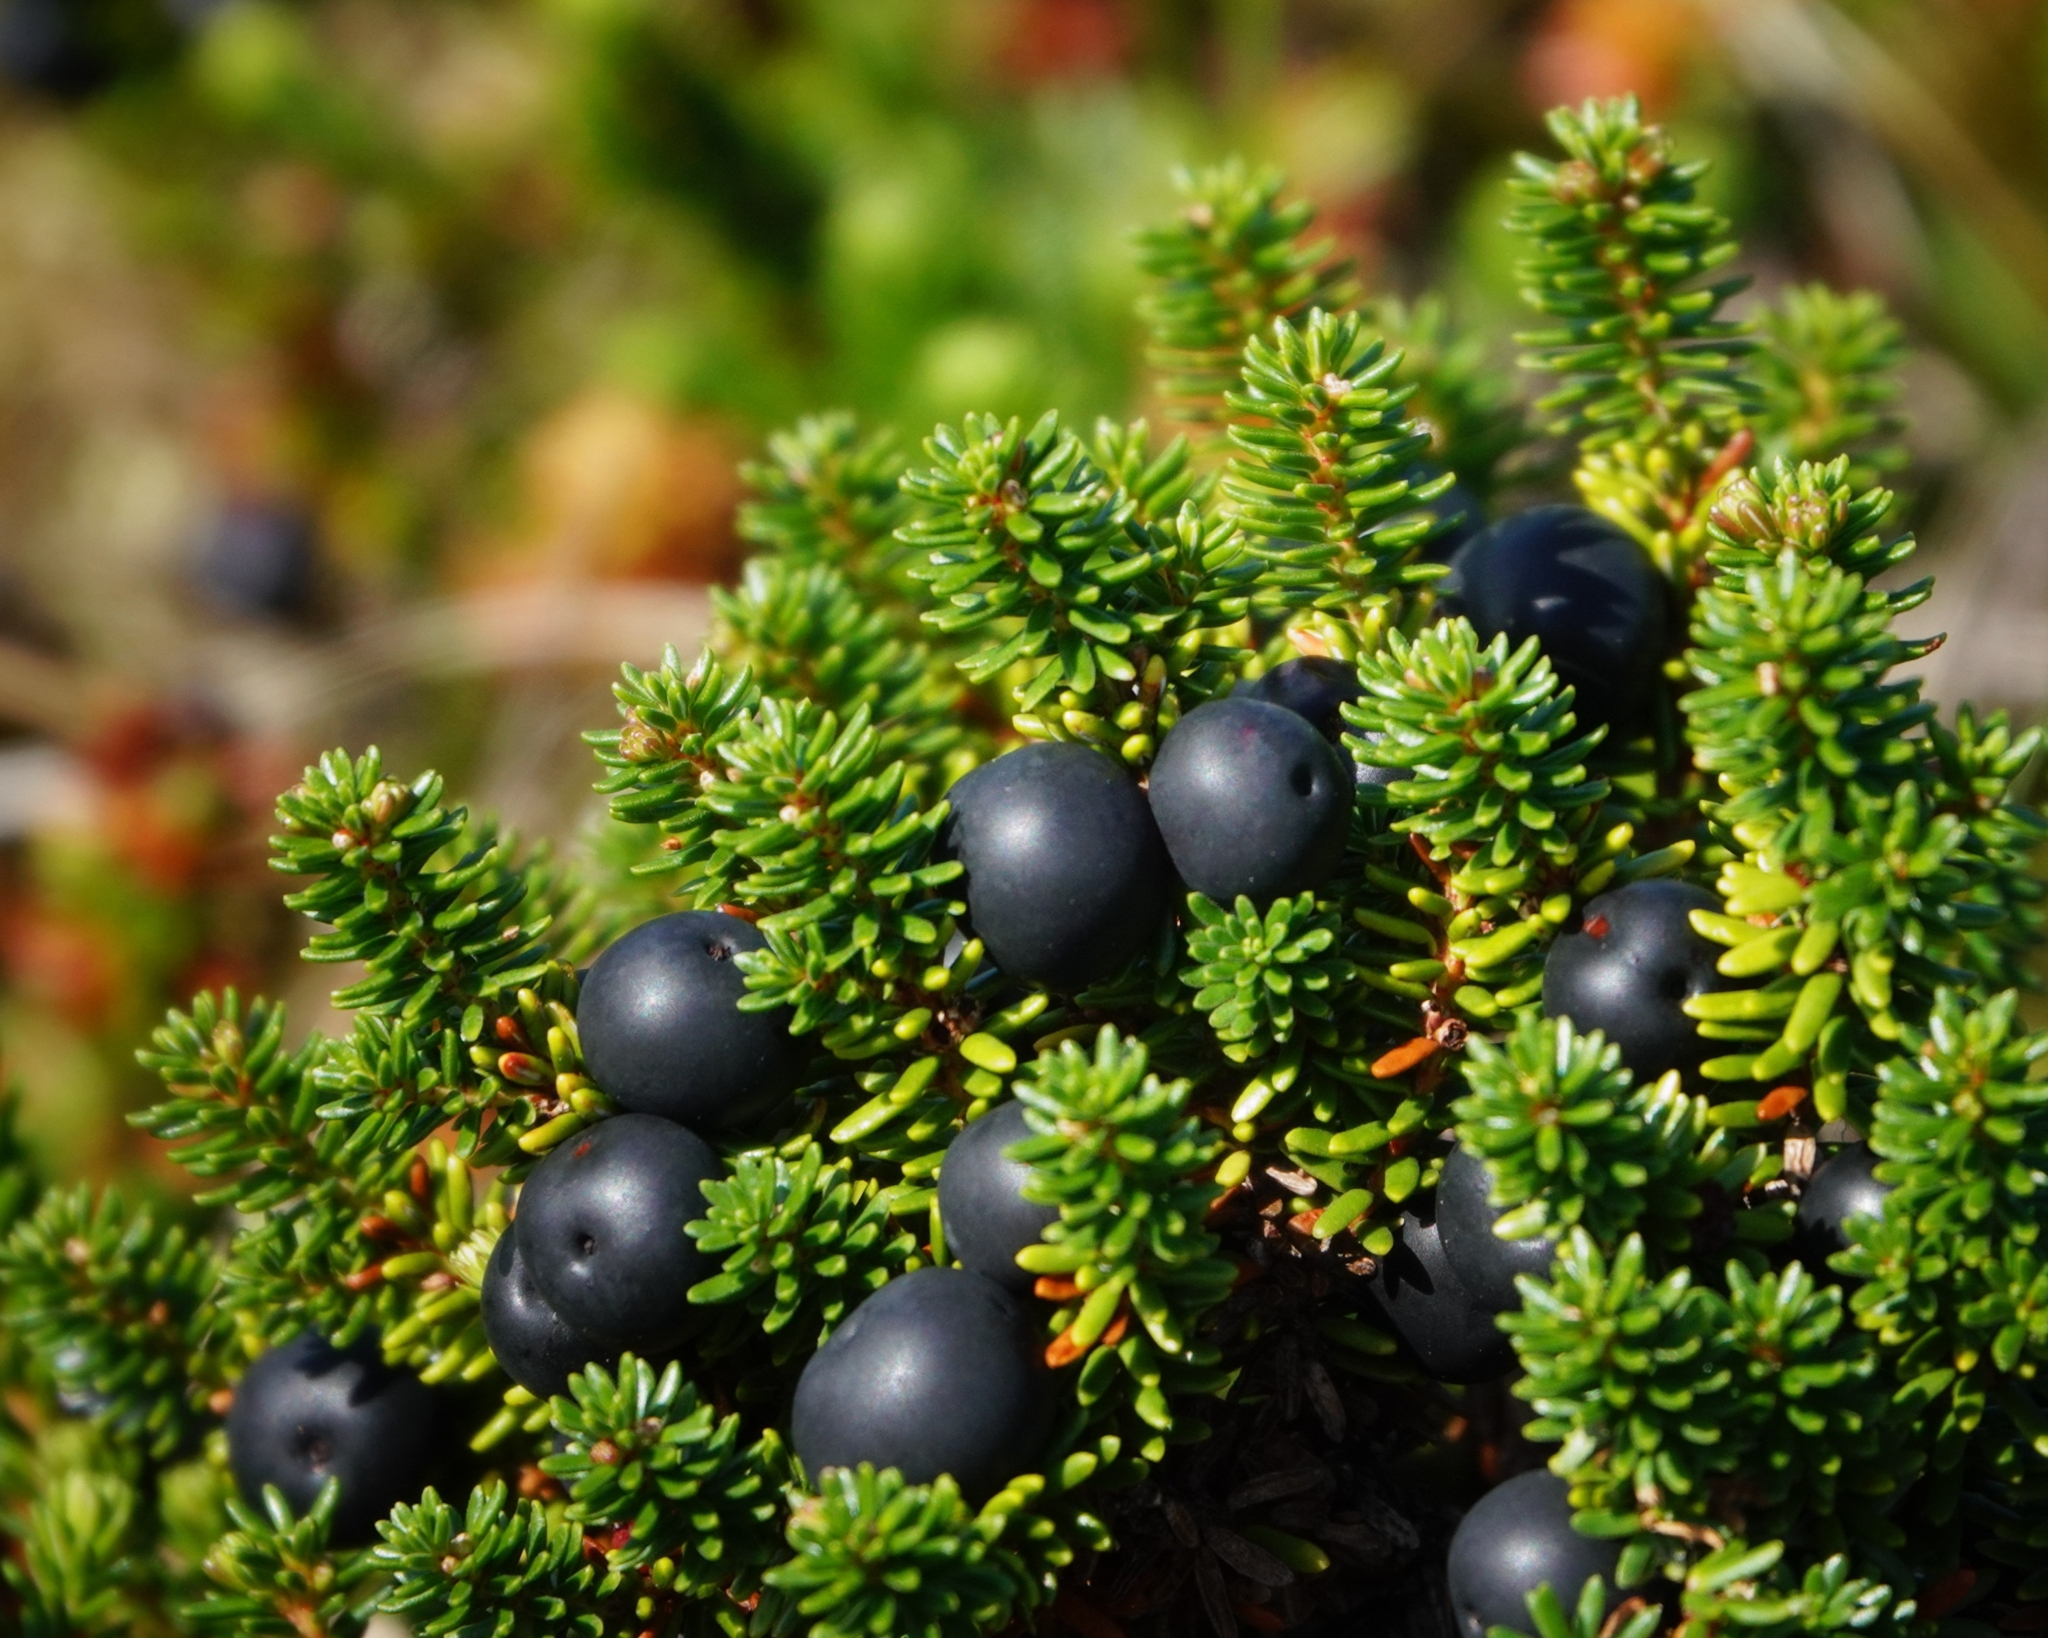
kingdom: Plantae
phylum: Tracheophyta
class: Magnoliopsida
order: Ericales
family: Ericaceae
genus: Empetrum
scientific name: Empetrum nigrum
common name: Black crowberry
